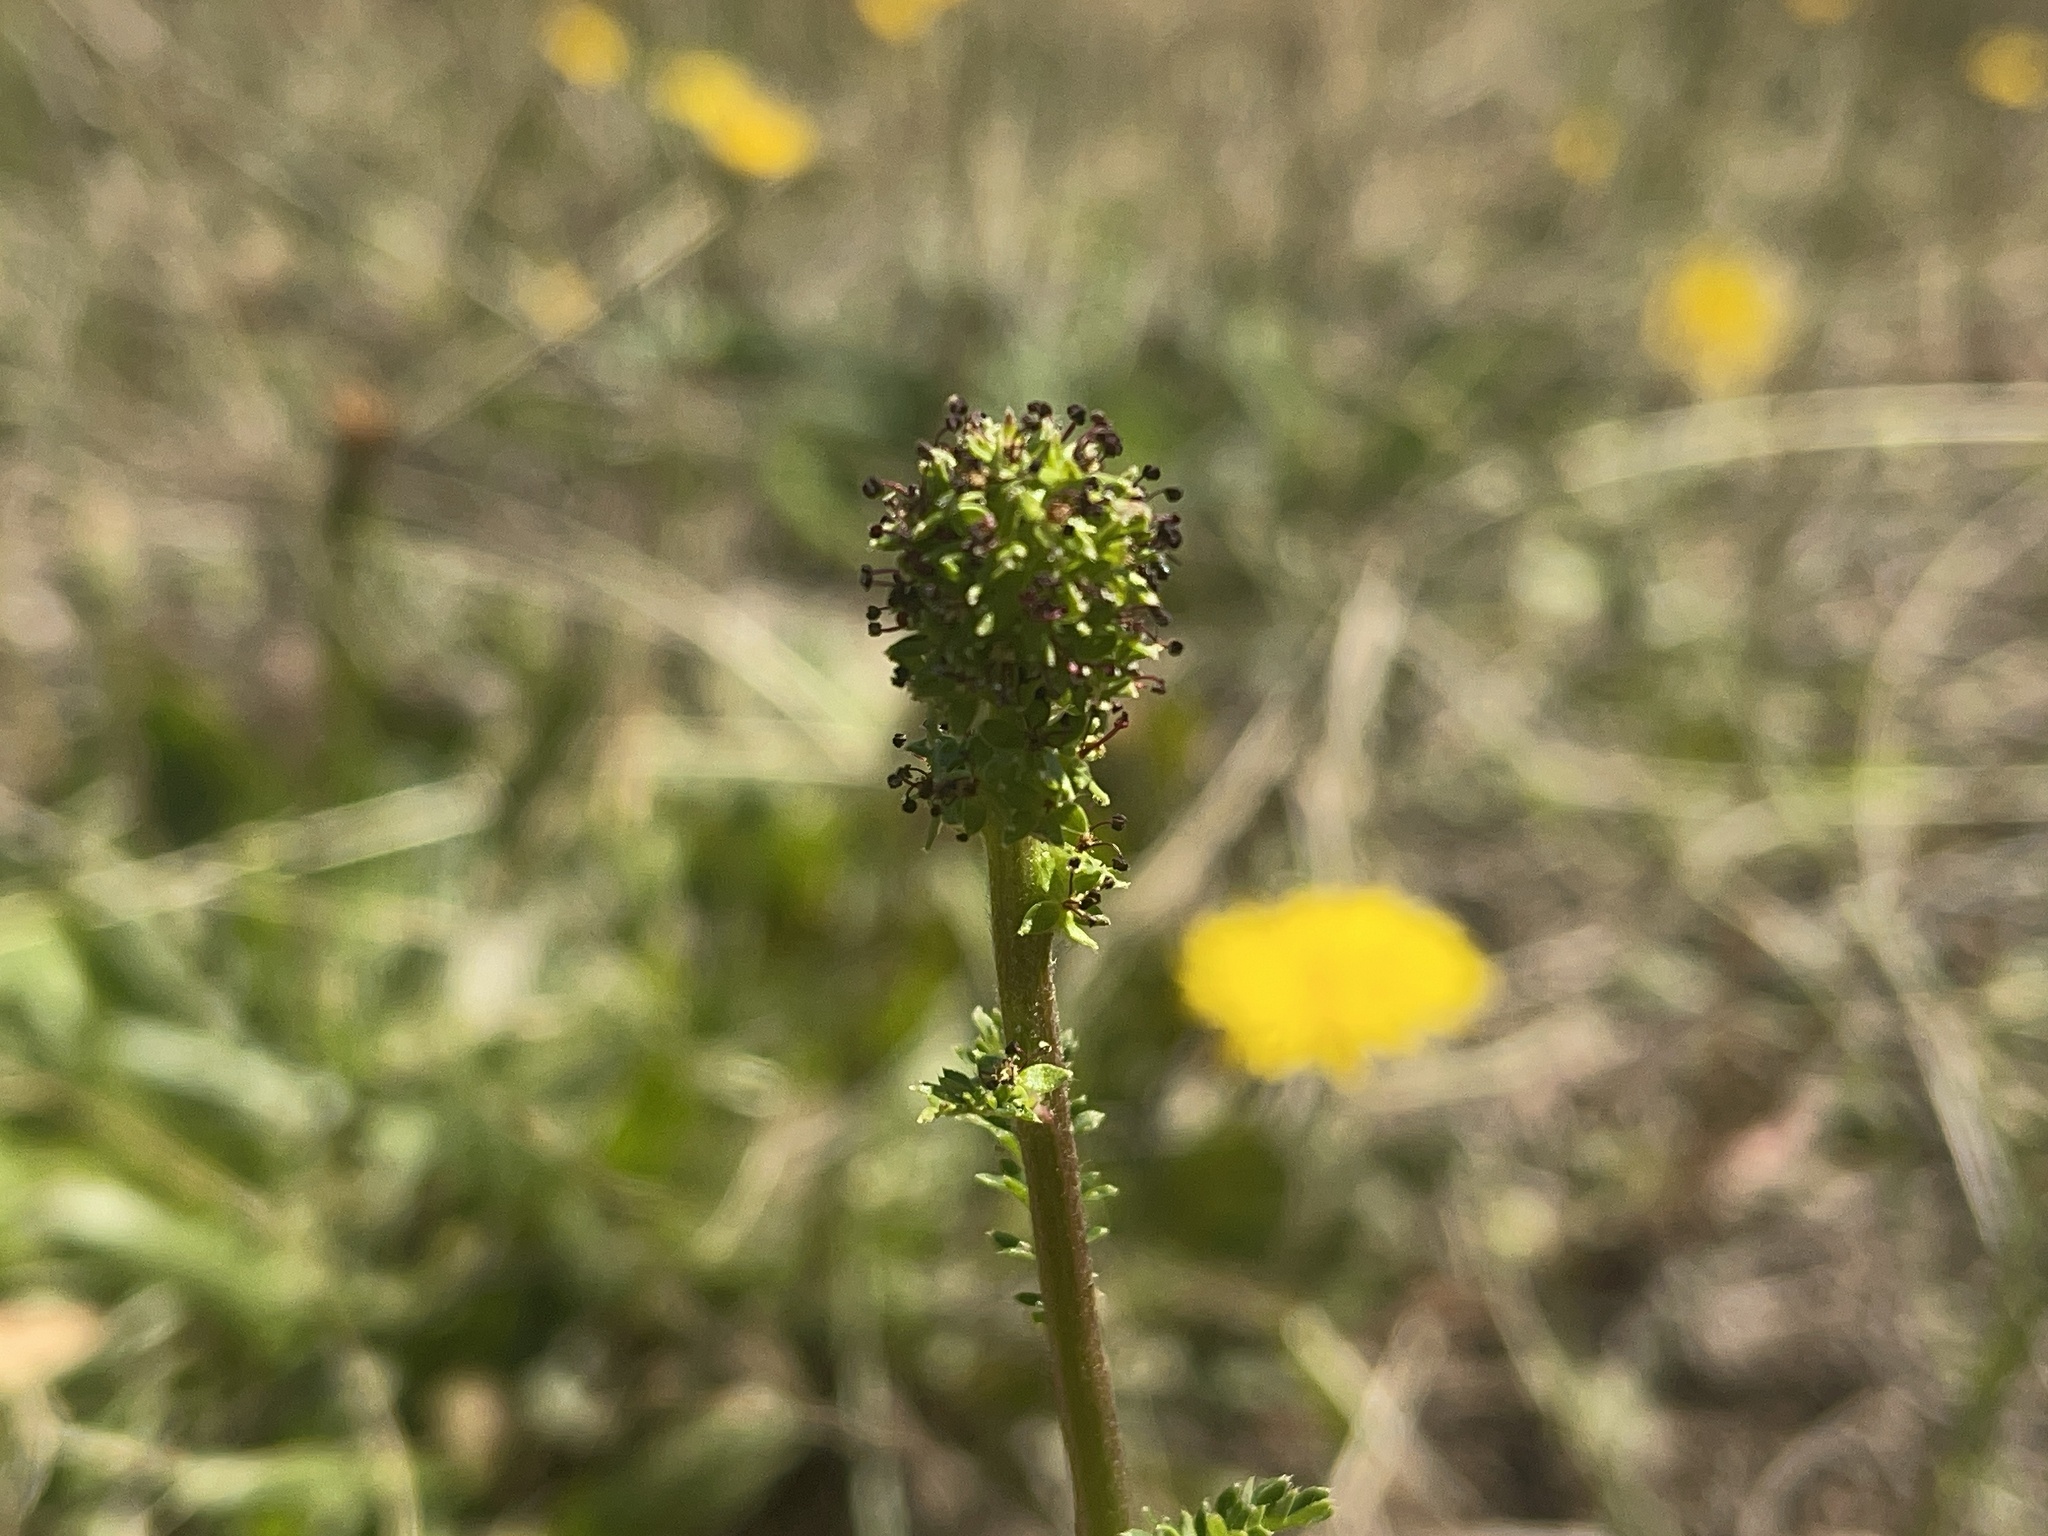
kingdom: Plantae
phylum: Tracheophyta
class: Magnoliopsida
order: Rosales
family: Rosaceae
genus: Acaena
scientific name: Acaena echinata
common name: Sheepbur
